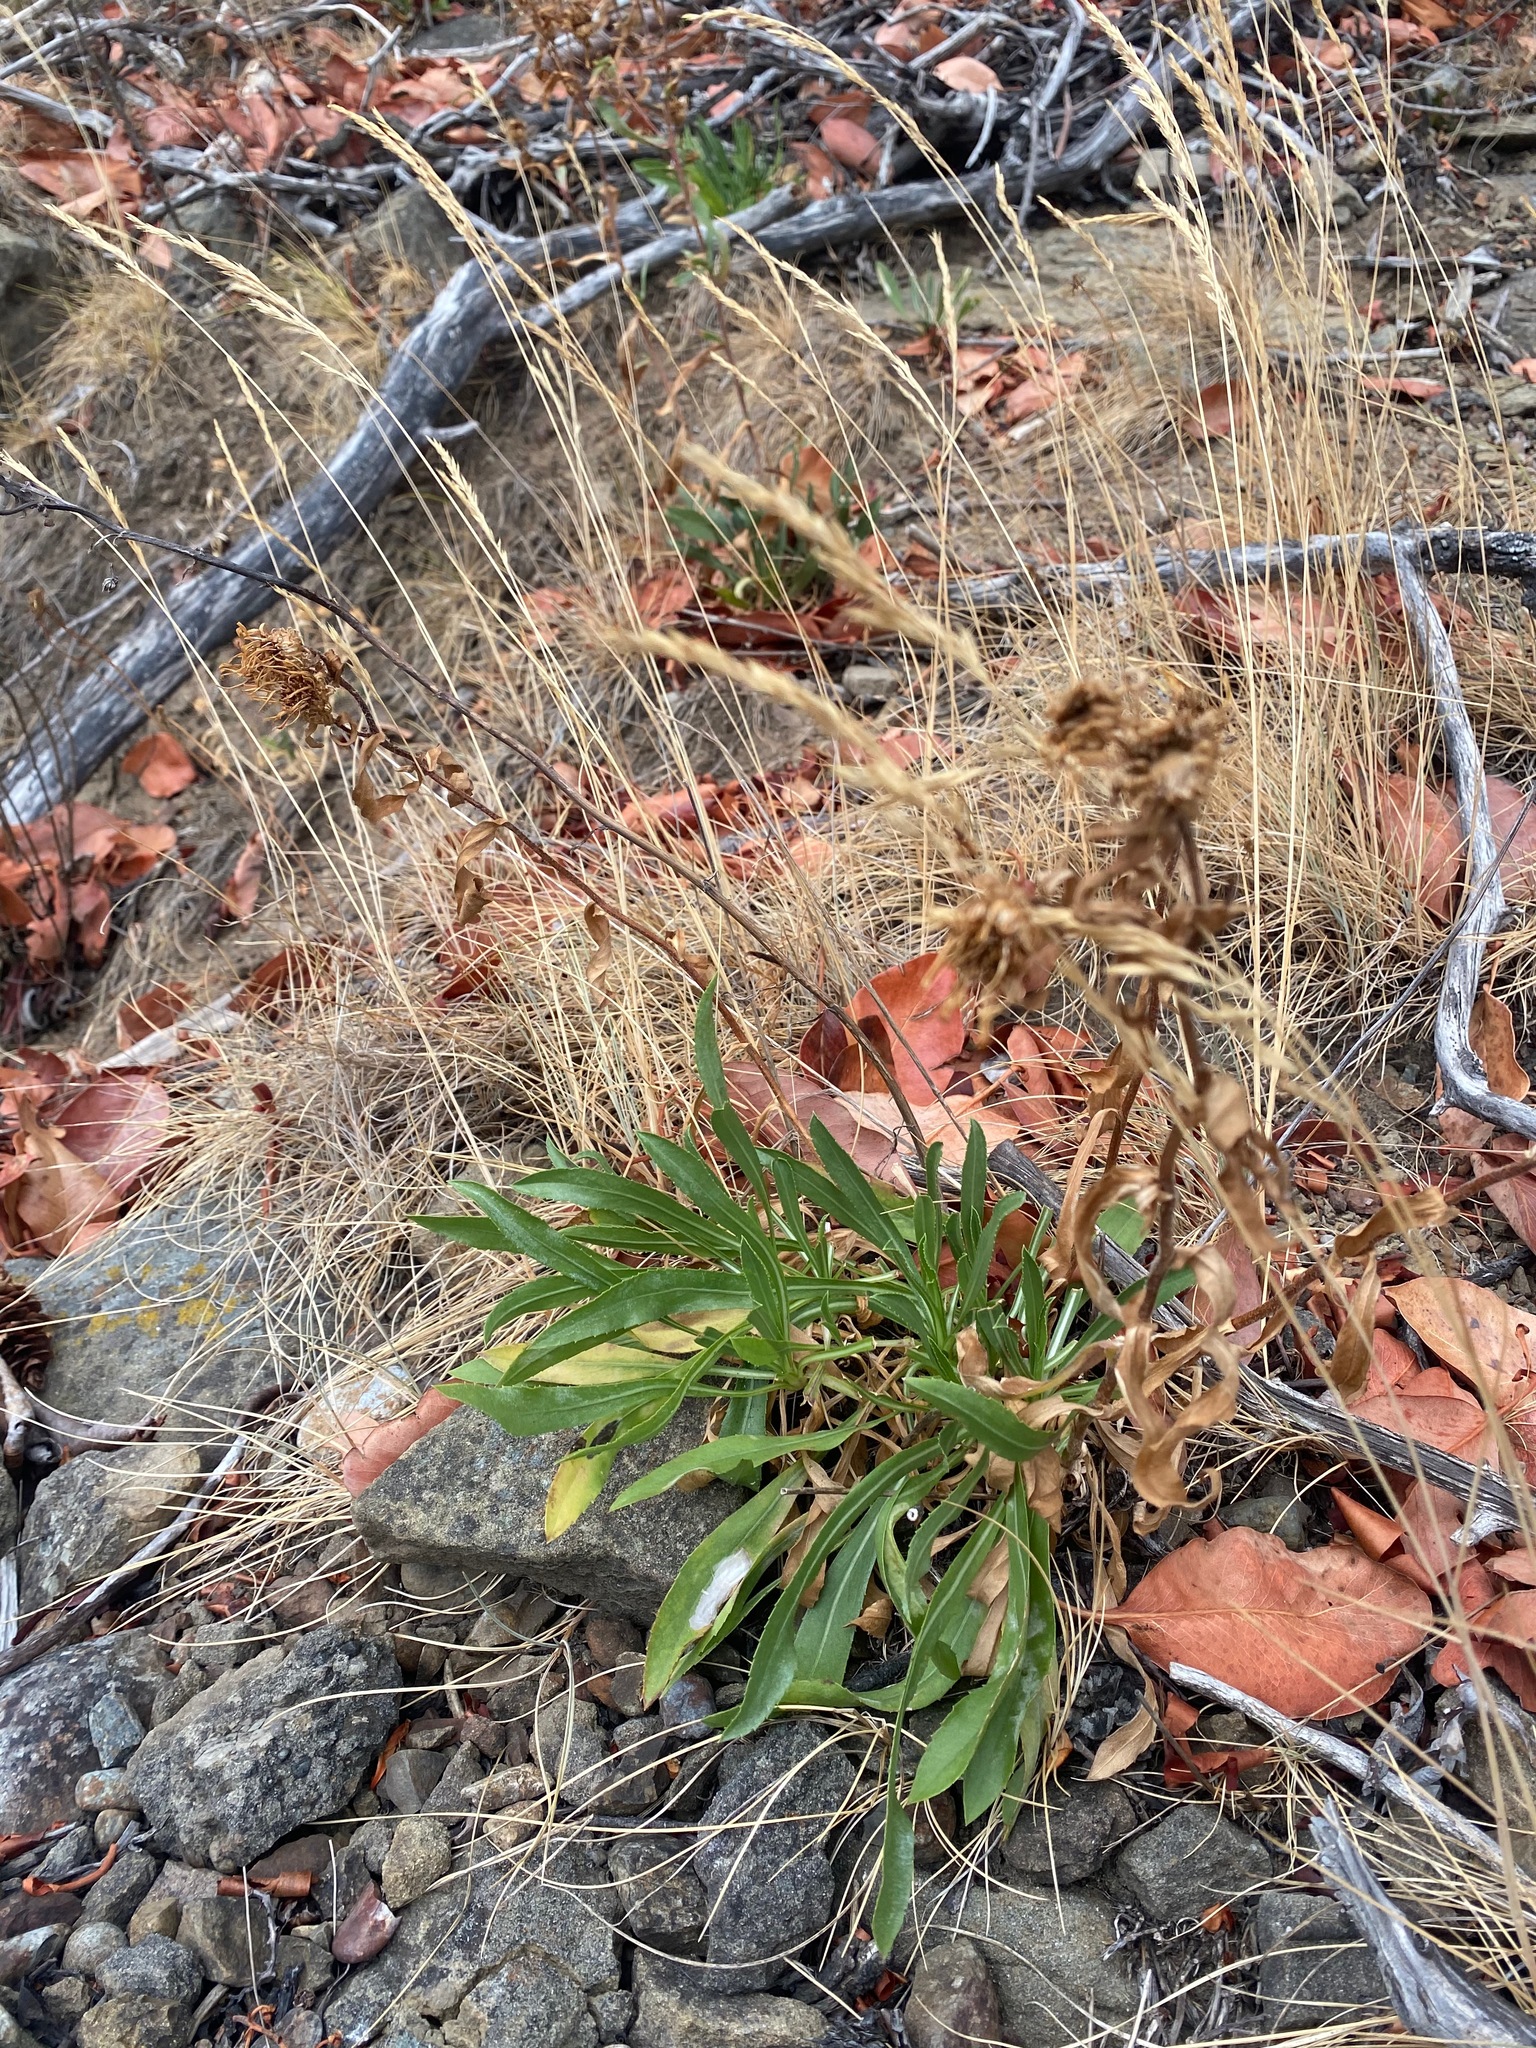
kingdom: Plantae
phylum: Tracheophyta
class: Magnoliopsida
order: Asterales
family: Asteraceae
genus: Grindelia
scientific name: Grindelia hirsutula
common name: Hairy gumweed
